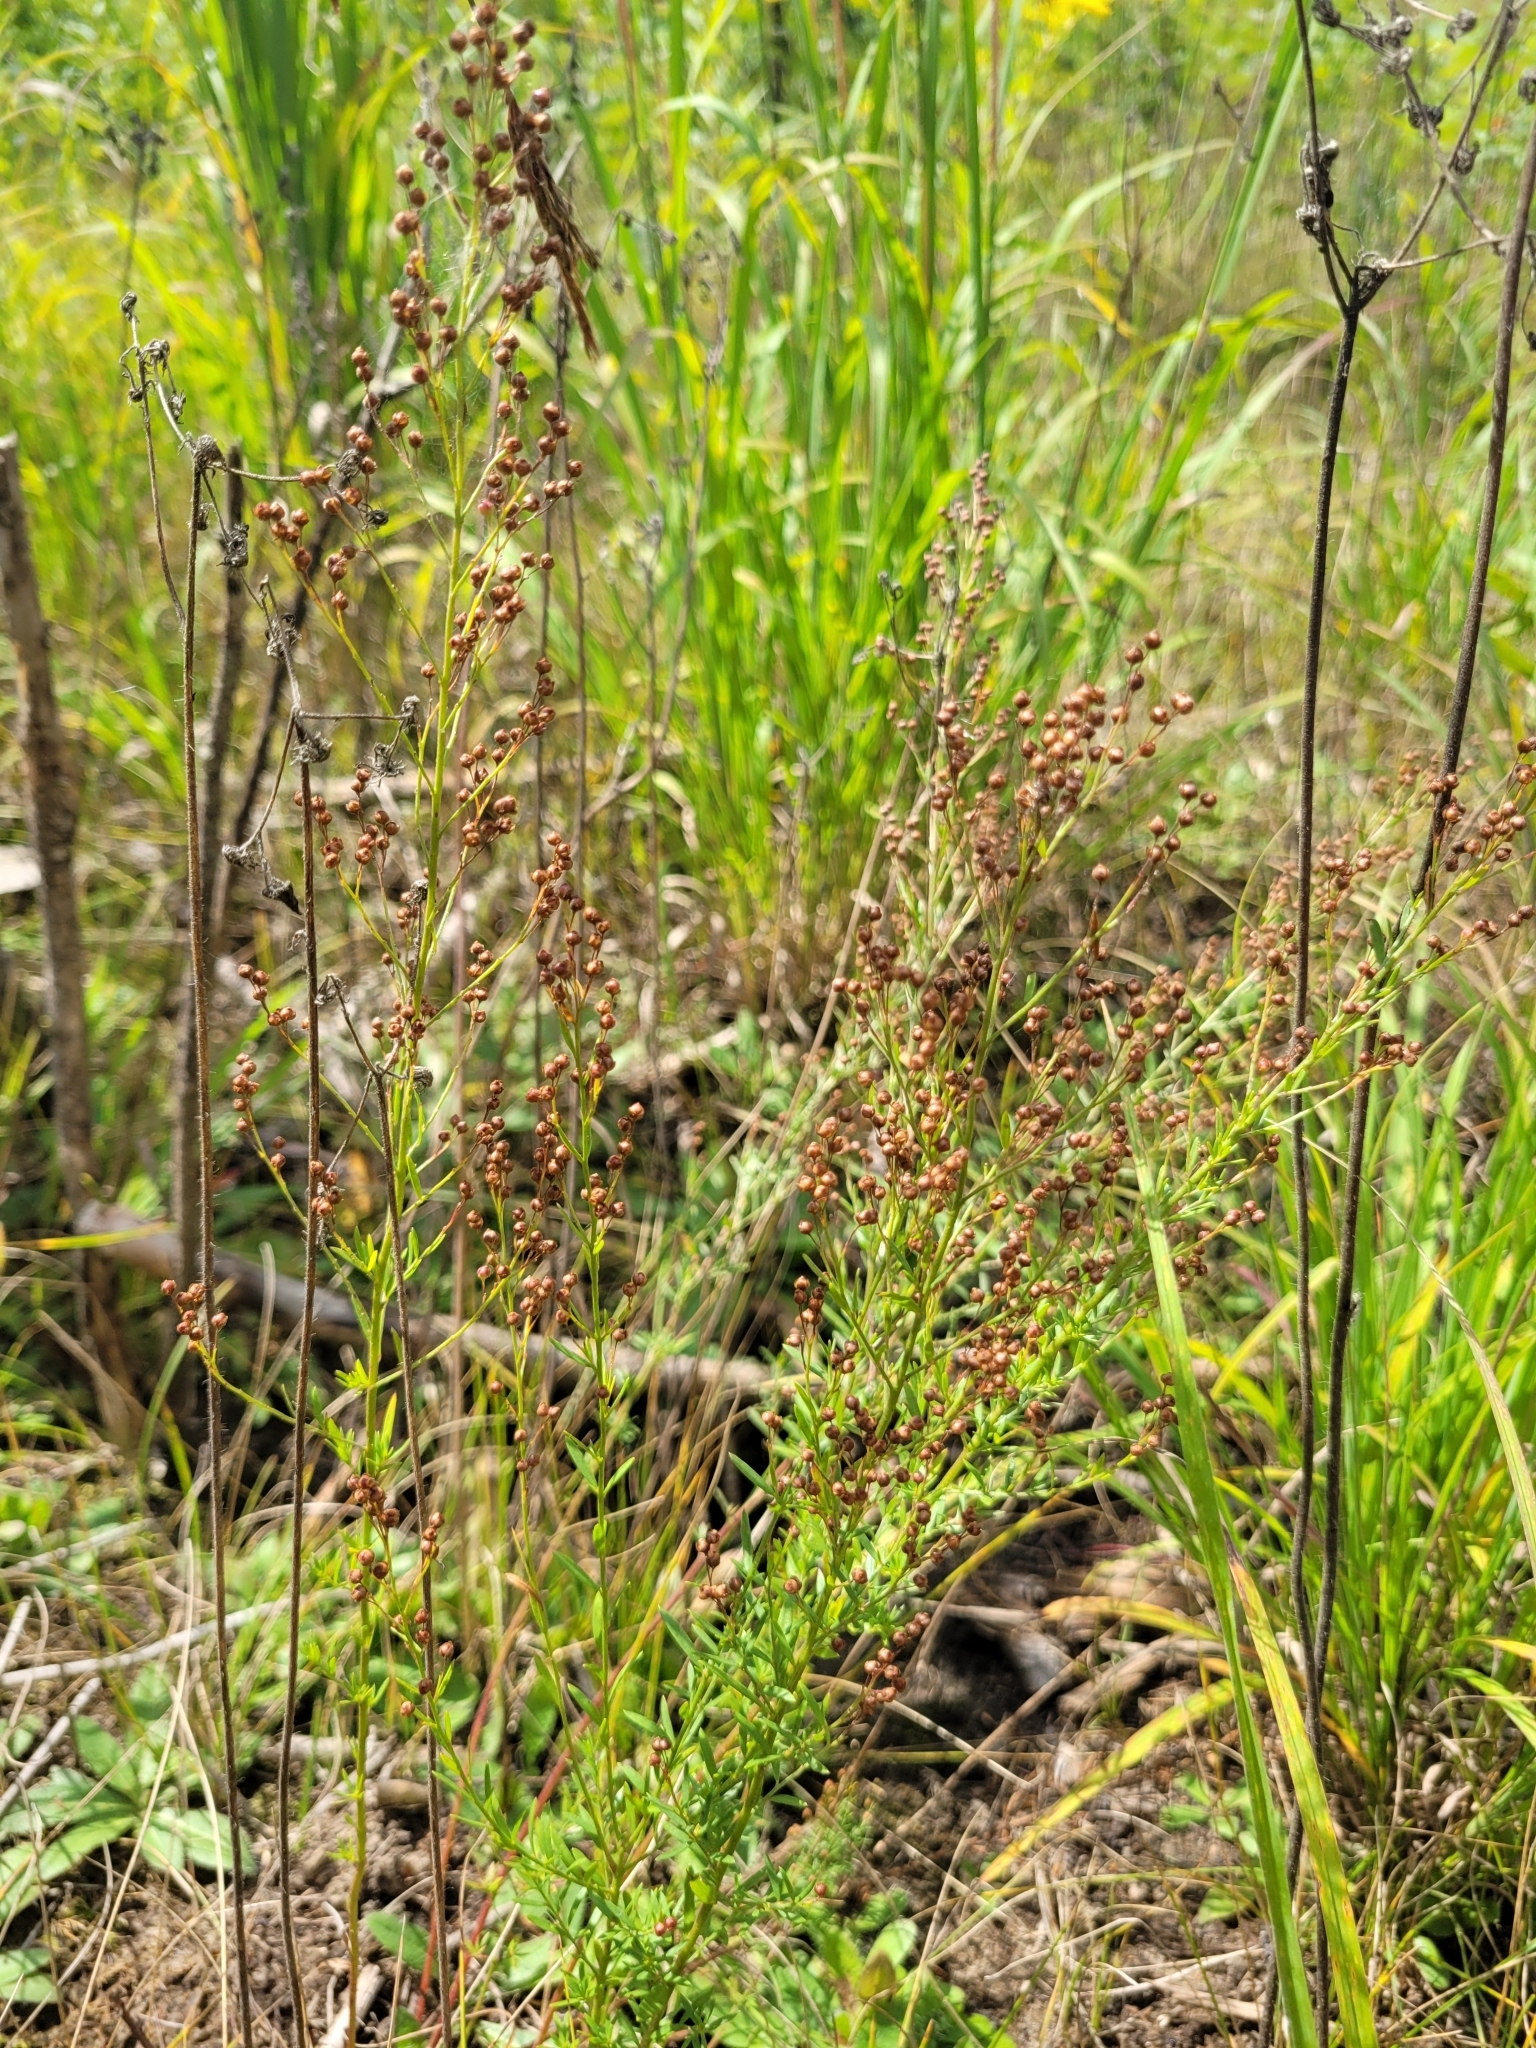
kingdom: Plantae
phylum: Tracheophyta
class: Magnoliopsida
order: Malvales
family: Cistaceae
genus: Lechea
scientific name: Lechea intermedia
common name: Intermediate pinweed
